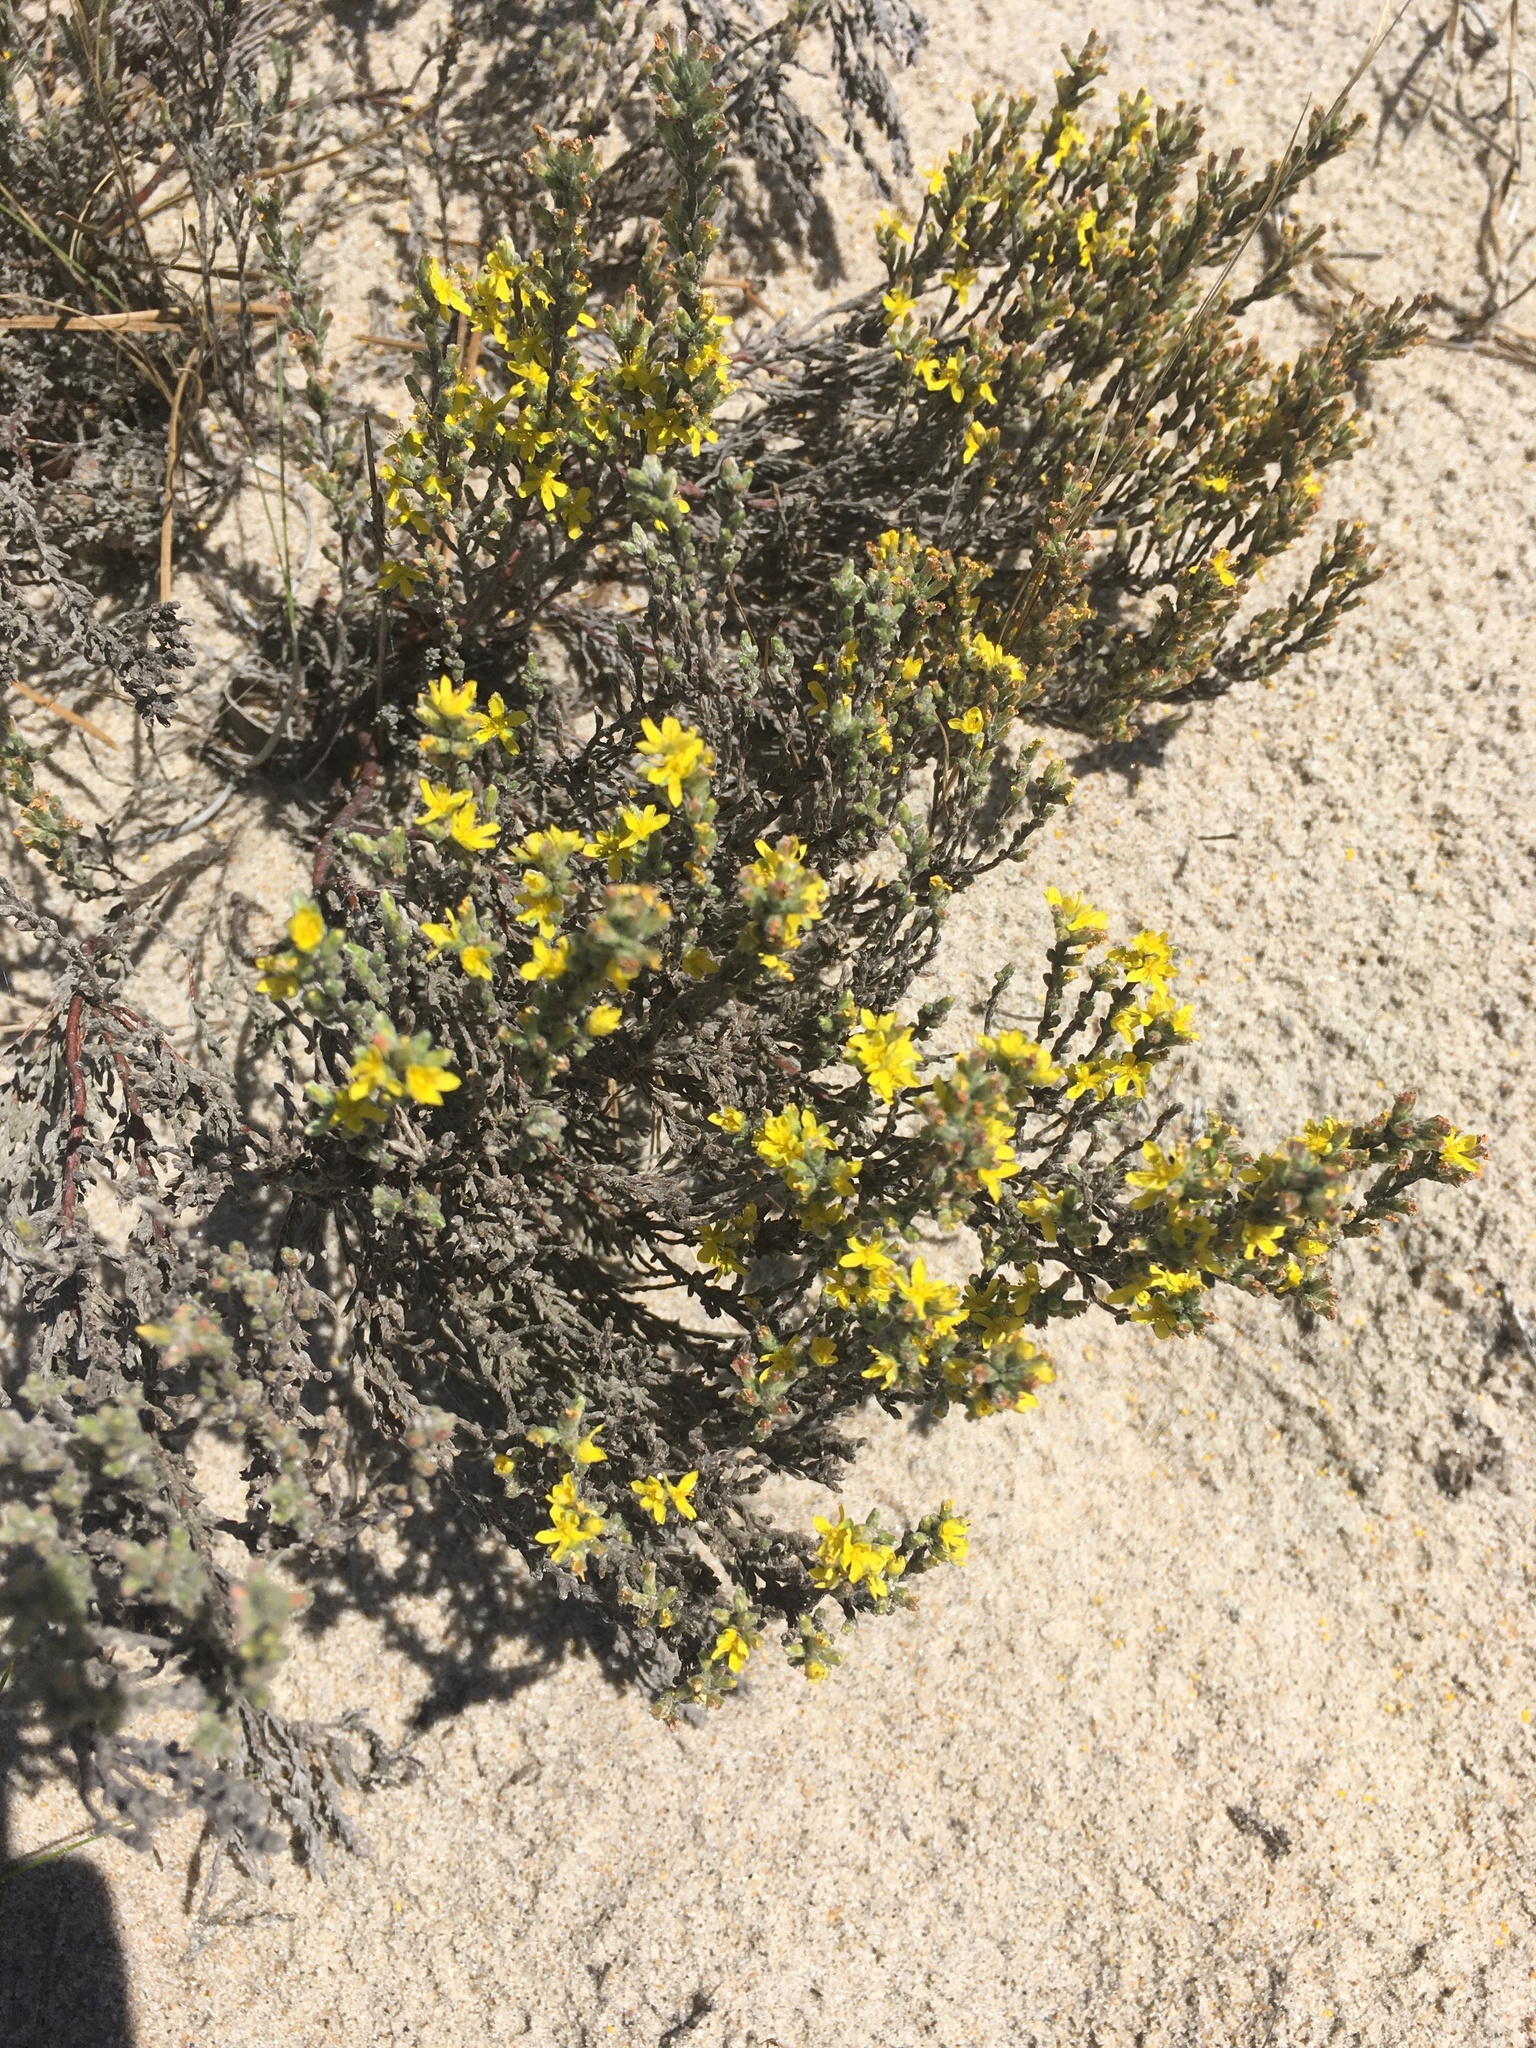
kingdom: Plantae
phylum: Tracheophyta
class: Magnoliopsida
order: Malvales
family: Cistaceae
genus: Hudsonia
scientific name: Hudsonia tomentosa
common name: Beach-heath
